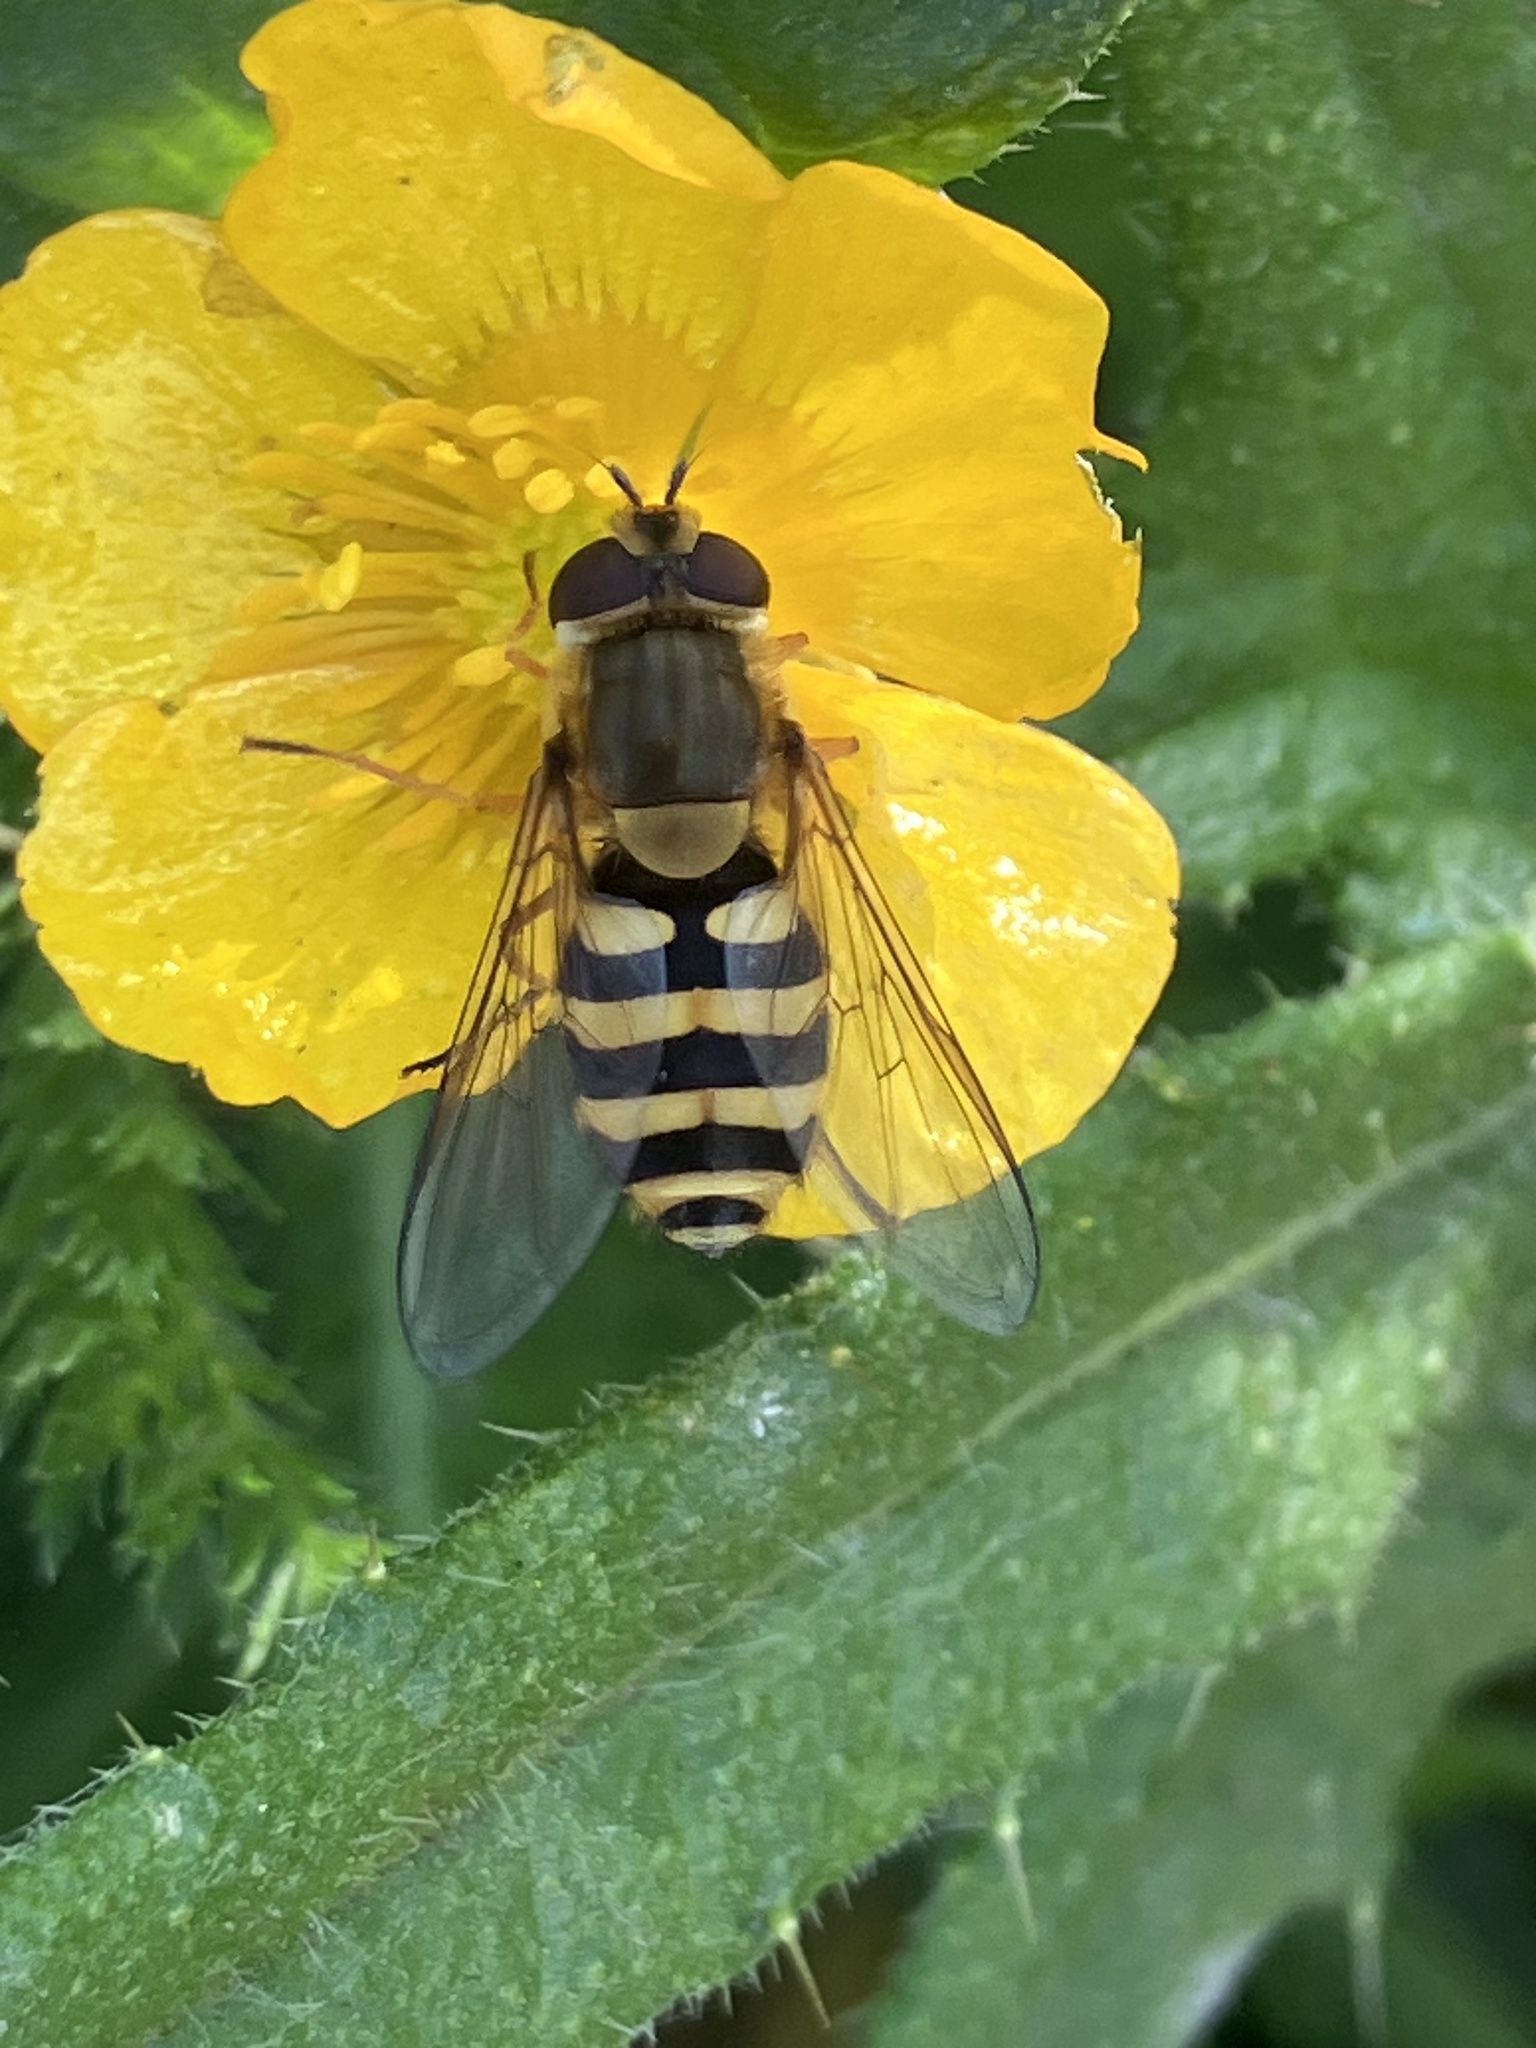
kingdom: Animalia
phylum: Arthropoda
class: Insecta
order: Diptera
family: Syrphidae
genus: Syrphus
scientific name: Syrphus
